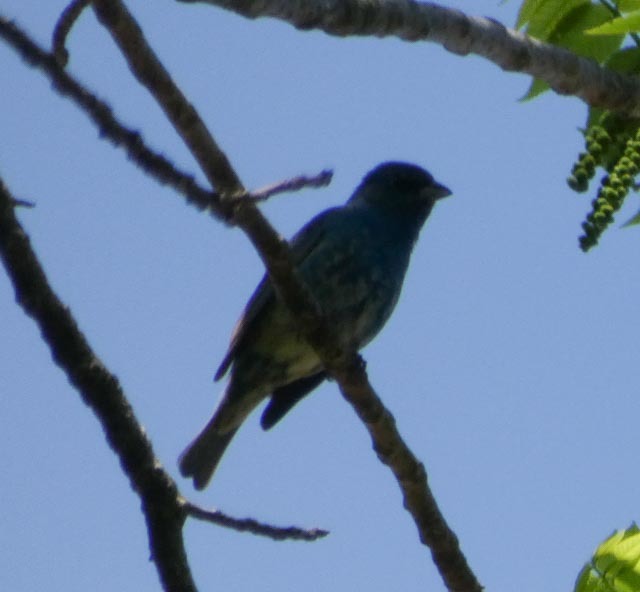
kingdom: Animalia
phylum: Chordata
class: Aves
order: Passeriformes
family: Cardinalidae
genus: Passerina
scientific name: Passerina cyanea
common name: Indigo bunting
